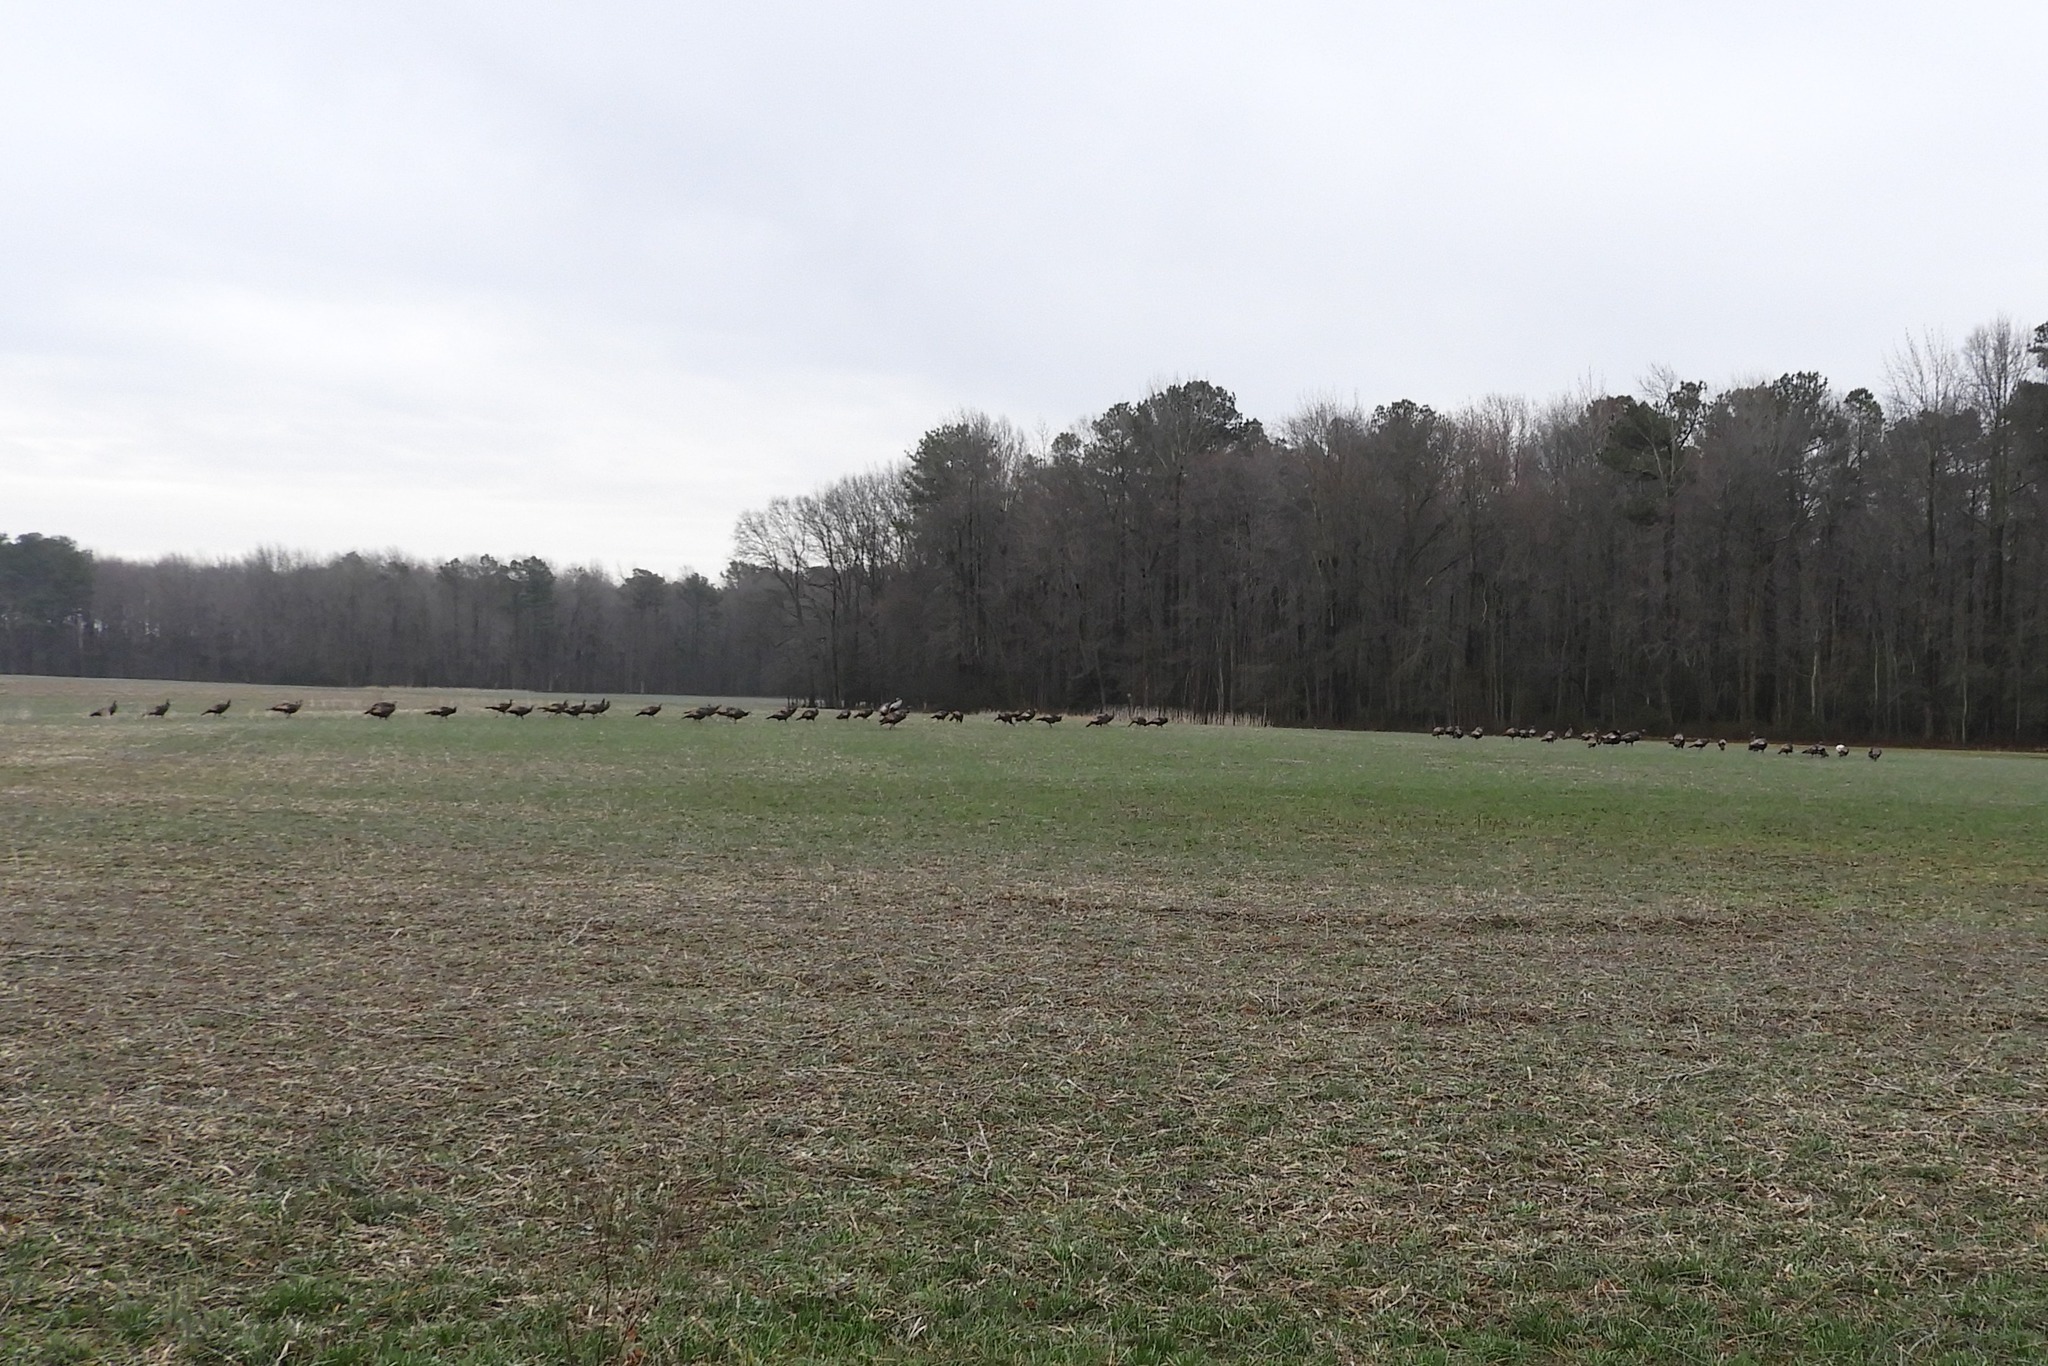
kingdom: Animalia
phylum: Chordata
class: Aves
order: Galliformes
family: Phasianidae
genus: Meleagris
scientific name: Meleagris gallopavo
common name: Wild turkey
